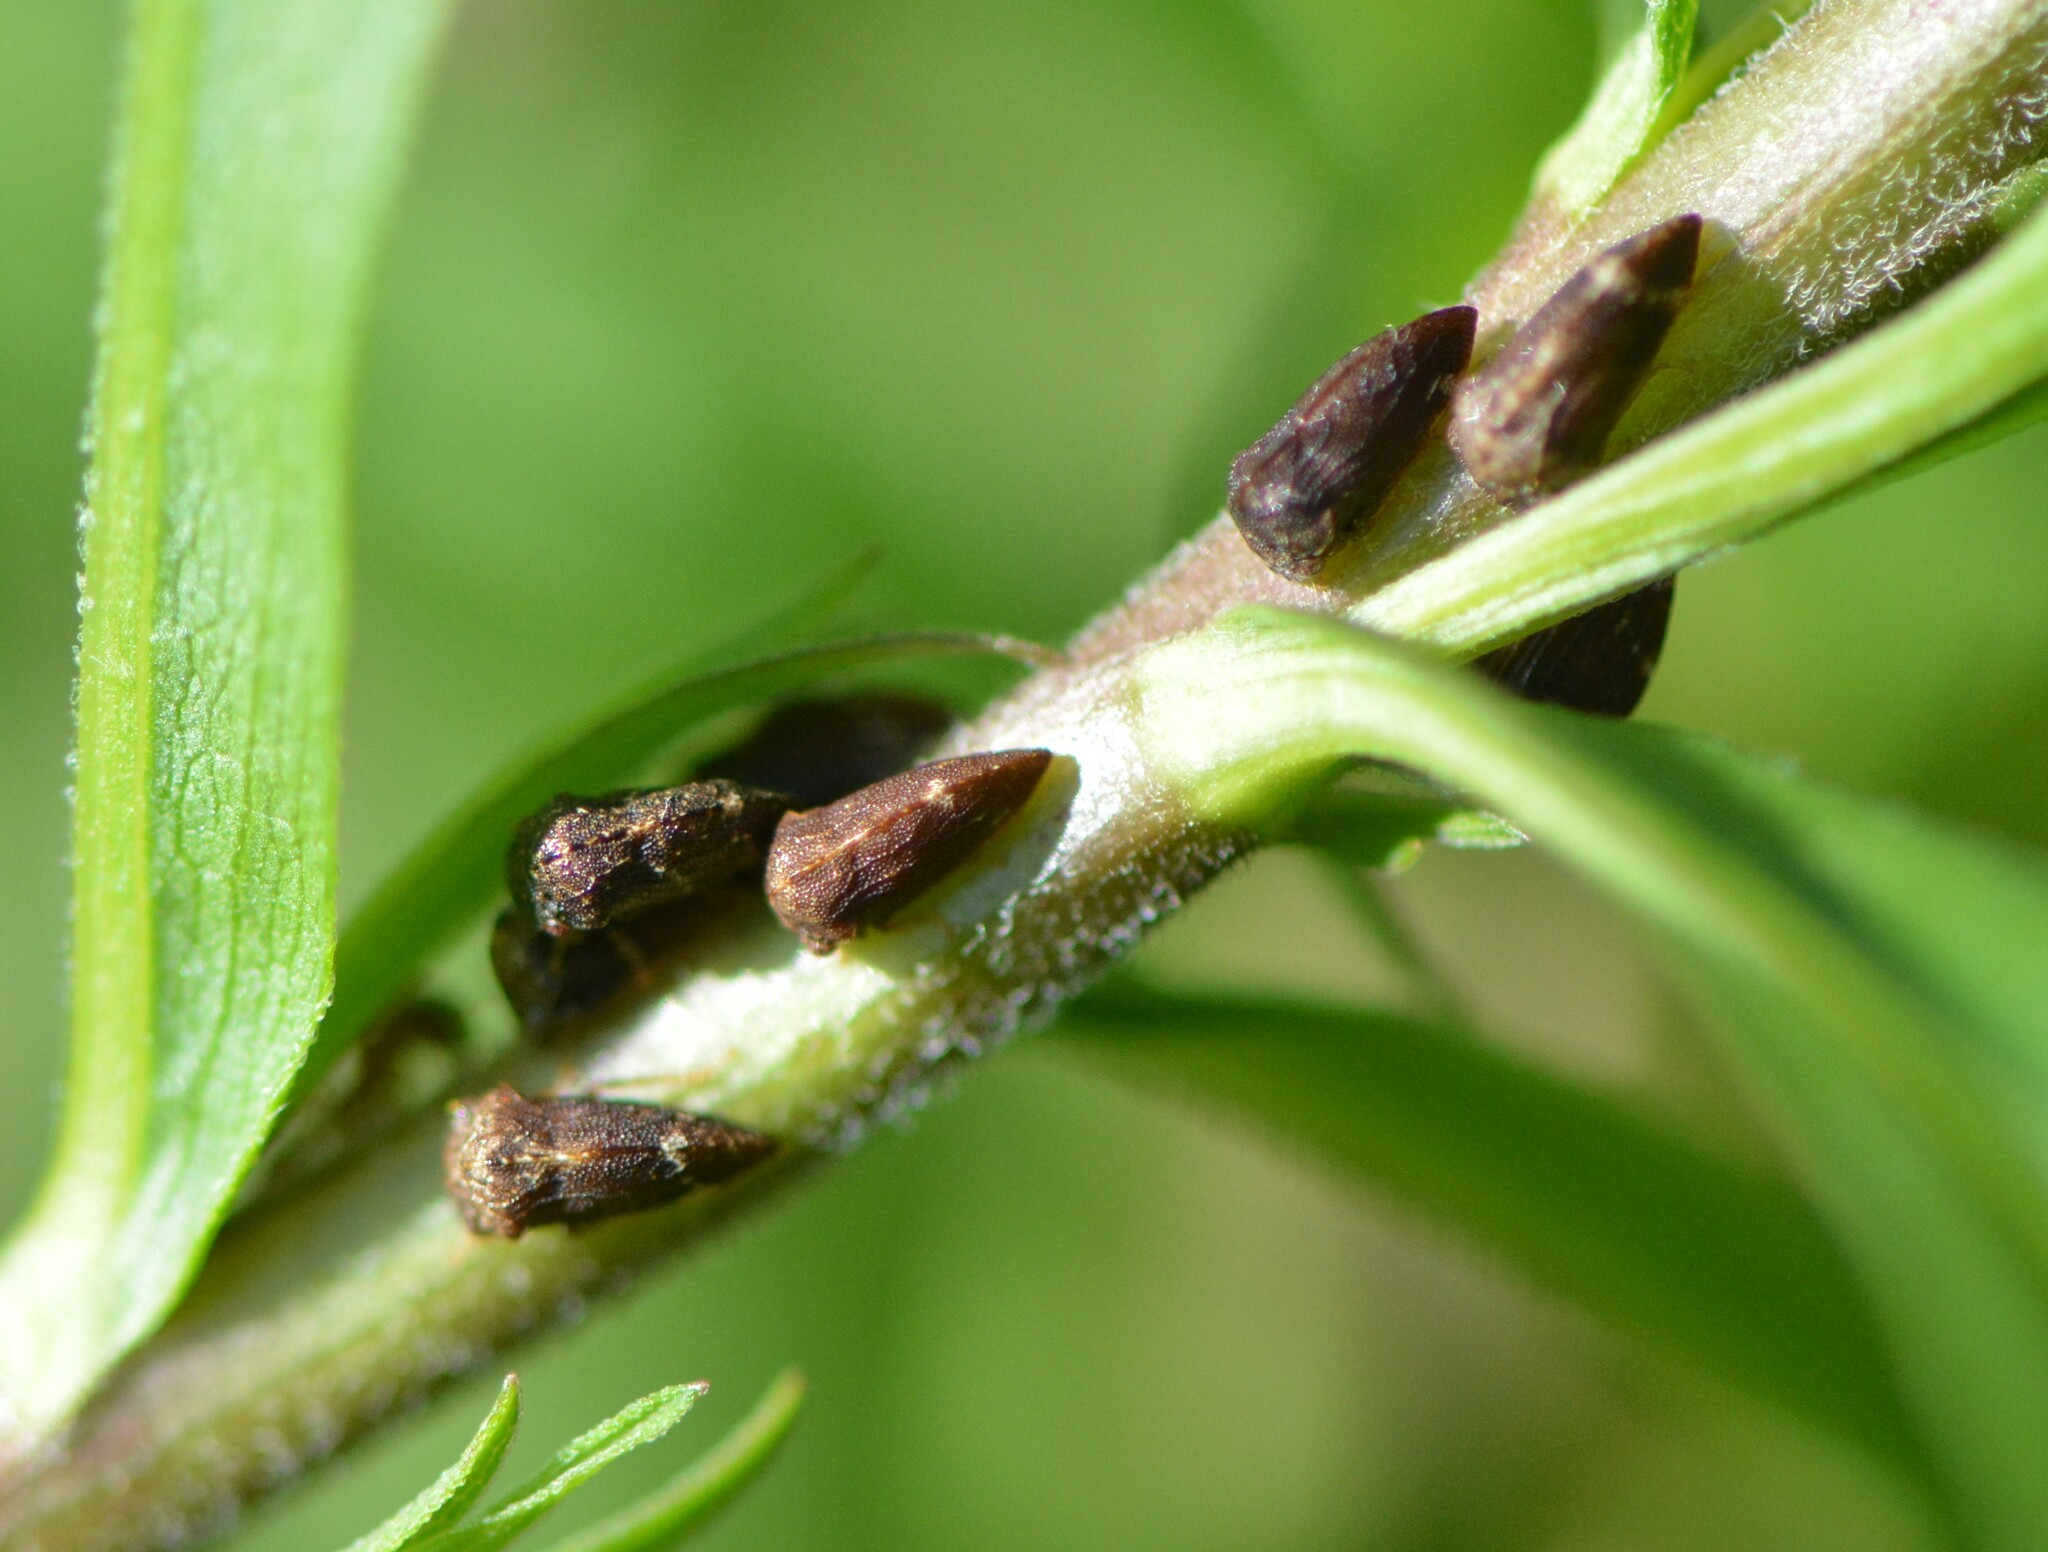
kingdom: Animalia
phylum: Arthropoda
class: Insecta
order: Hemiptera
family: Membracidae
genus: Publilia
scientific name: Publilia concava
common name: Aster treehopper
